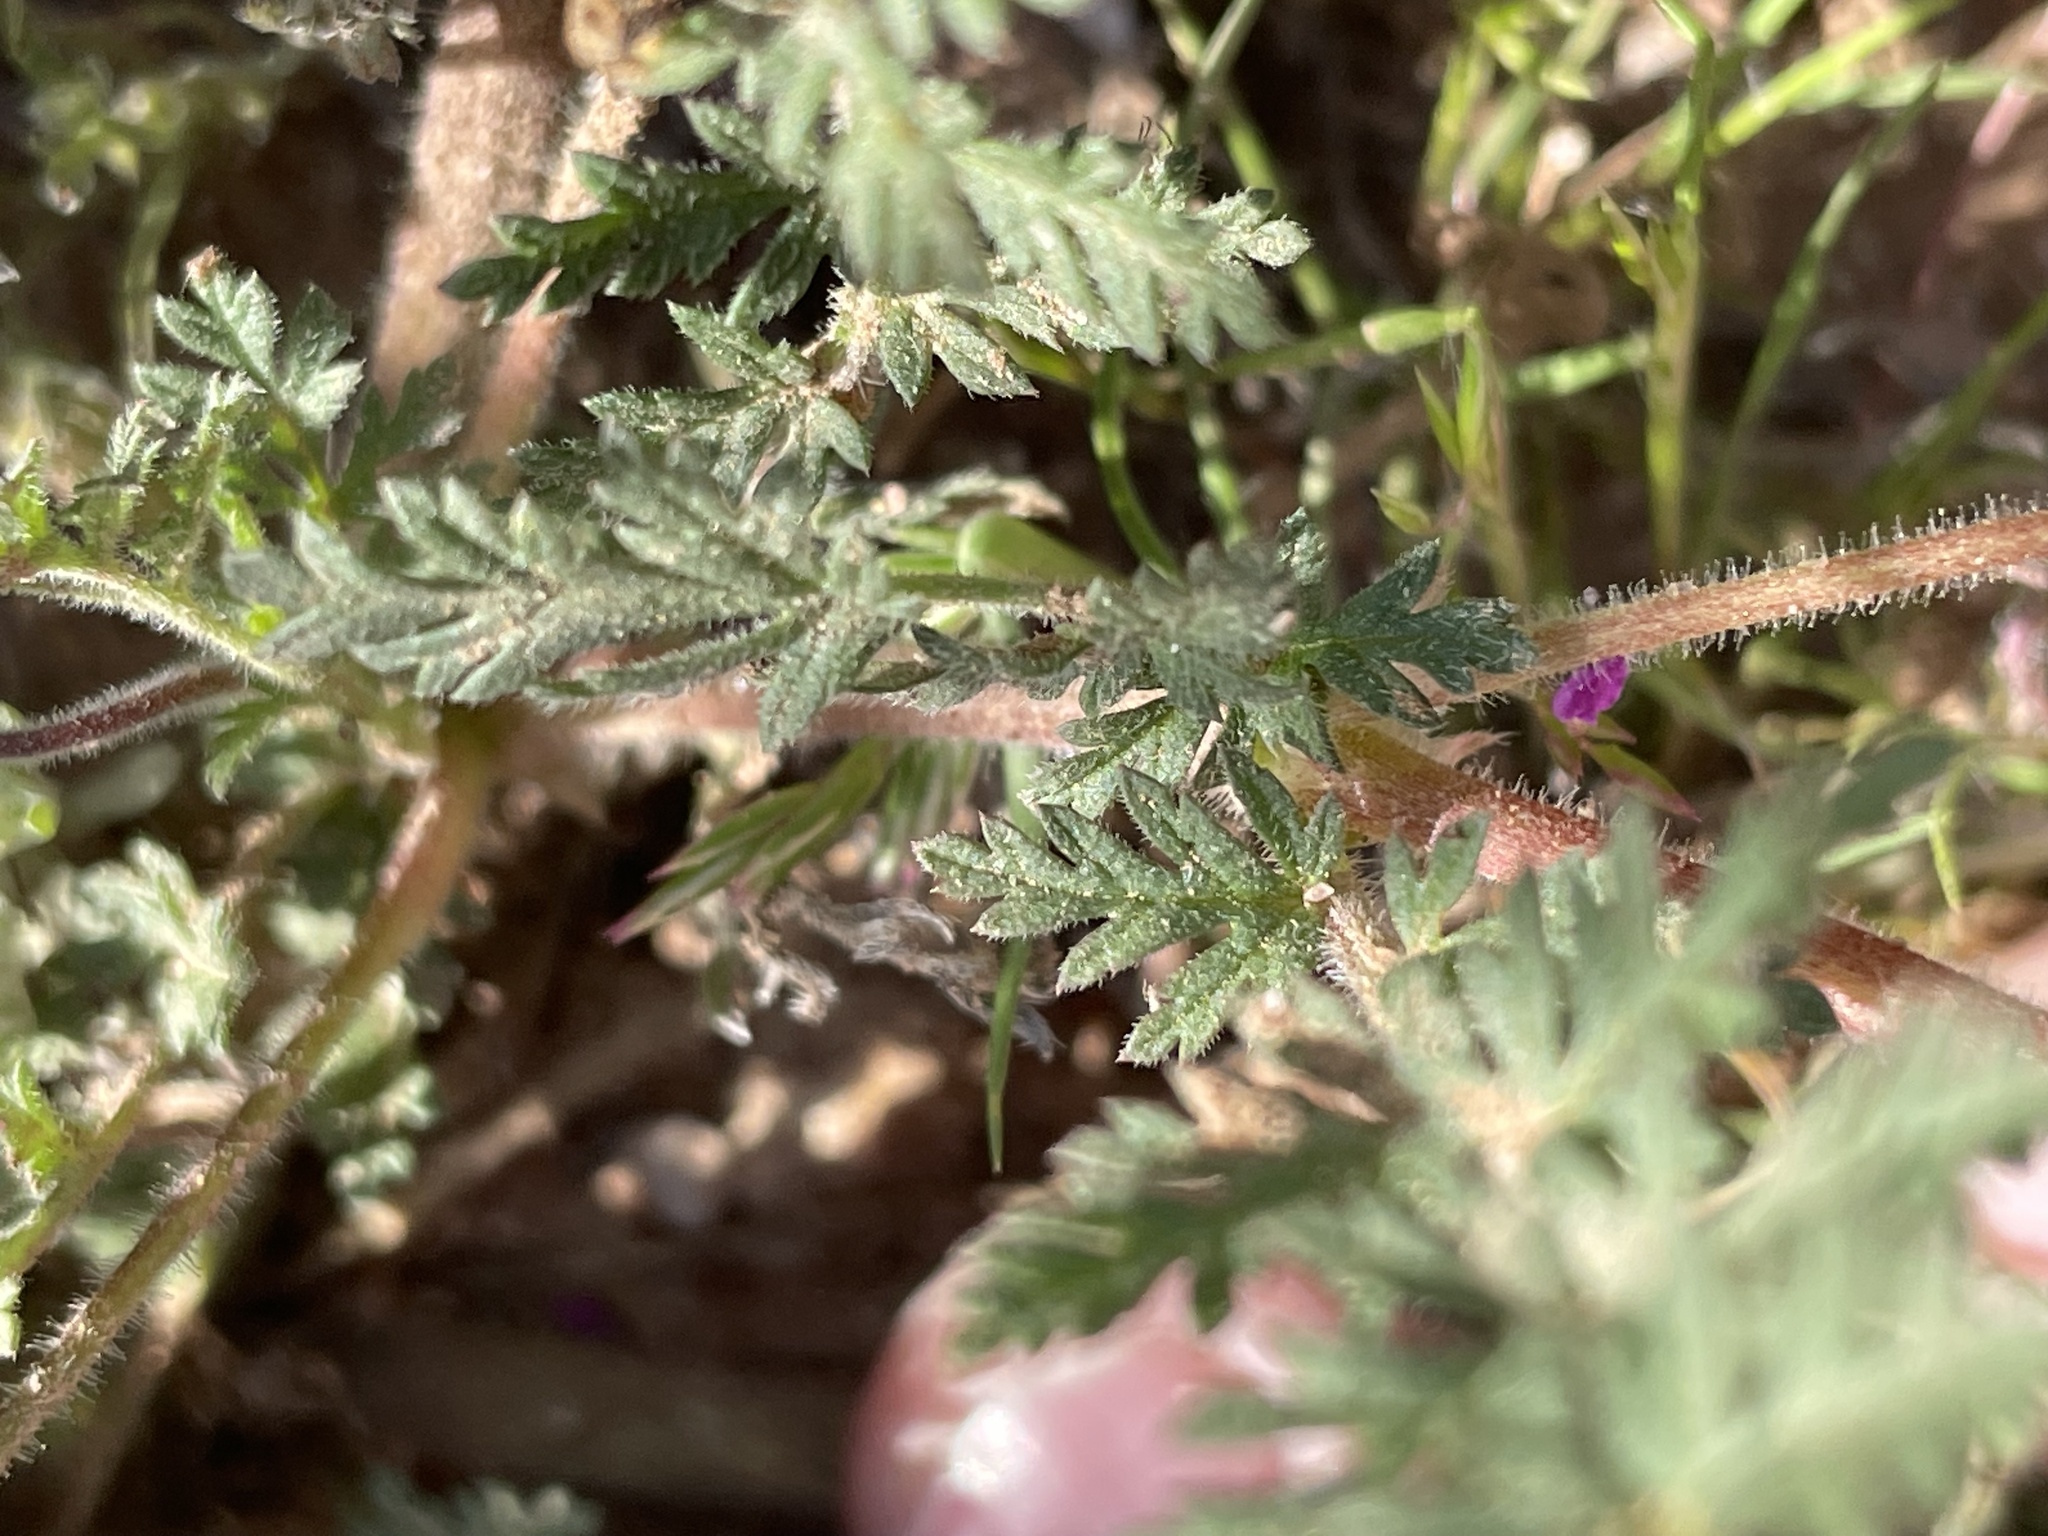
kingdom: Plantae
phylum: Tracheophyta
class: Magnoliopsida
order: Geraniales
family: Geraniaceae
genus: Erodium
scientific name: Erodium cicutarium
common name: Common stork's-bill
